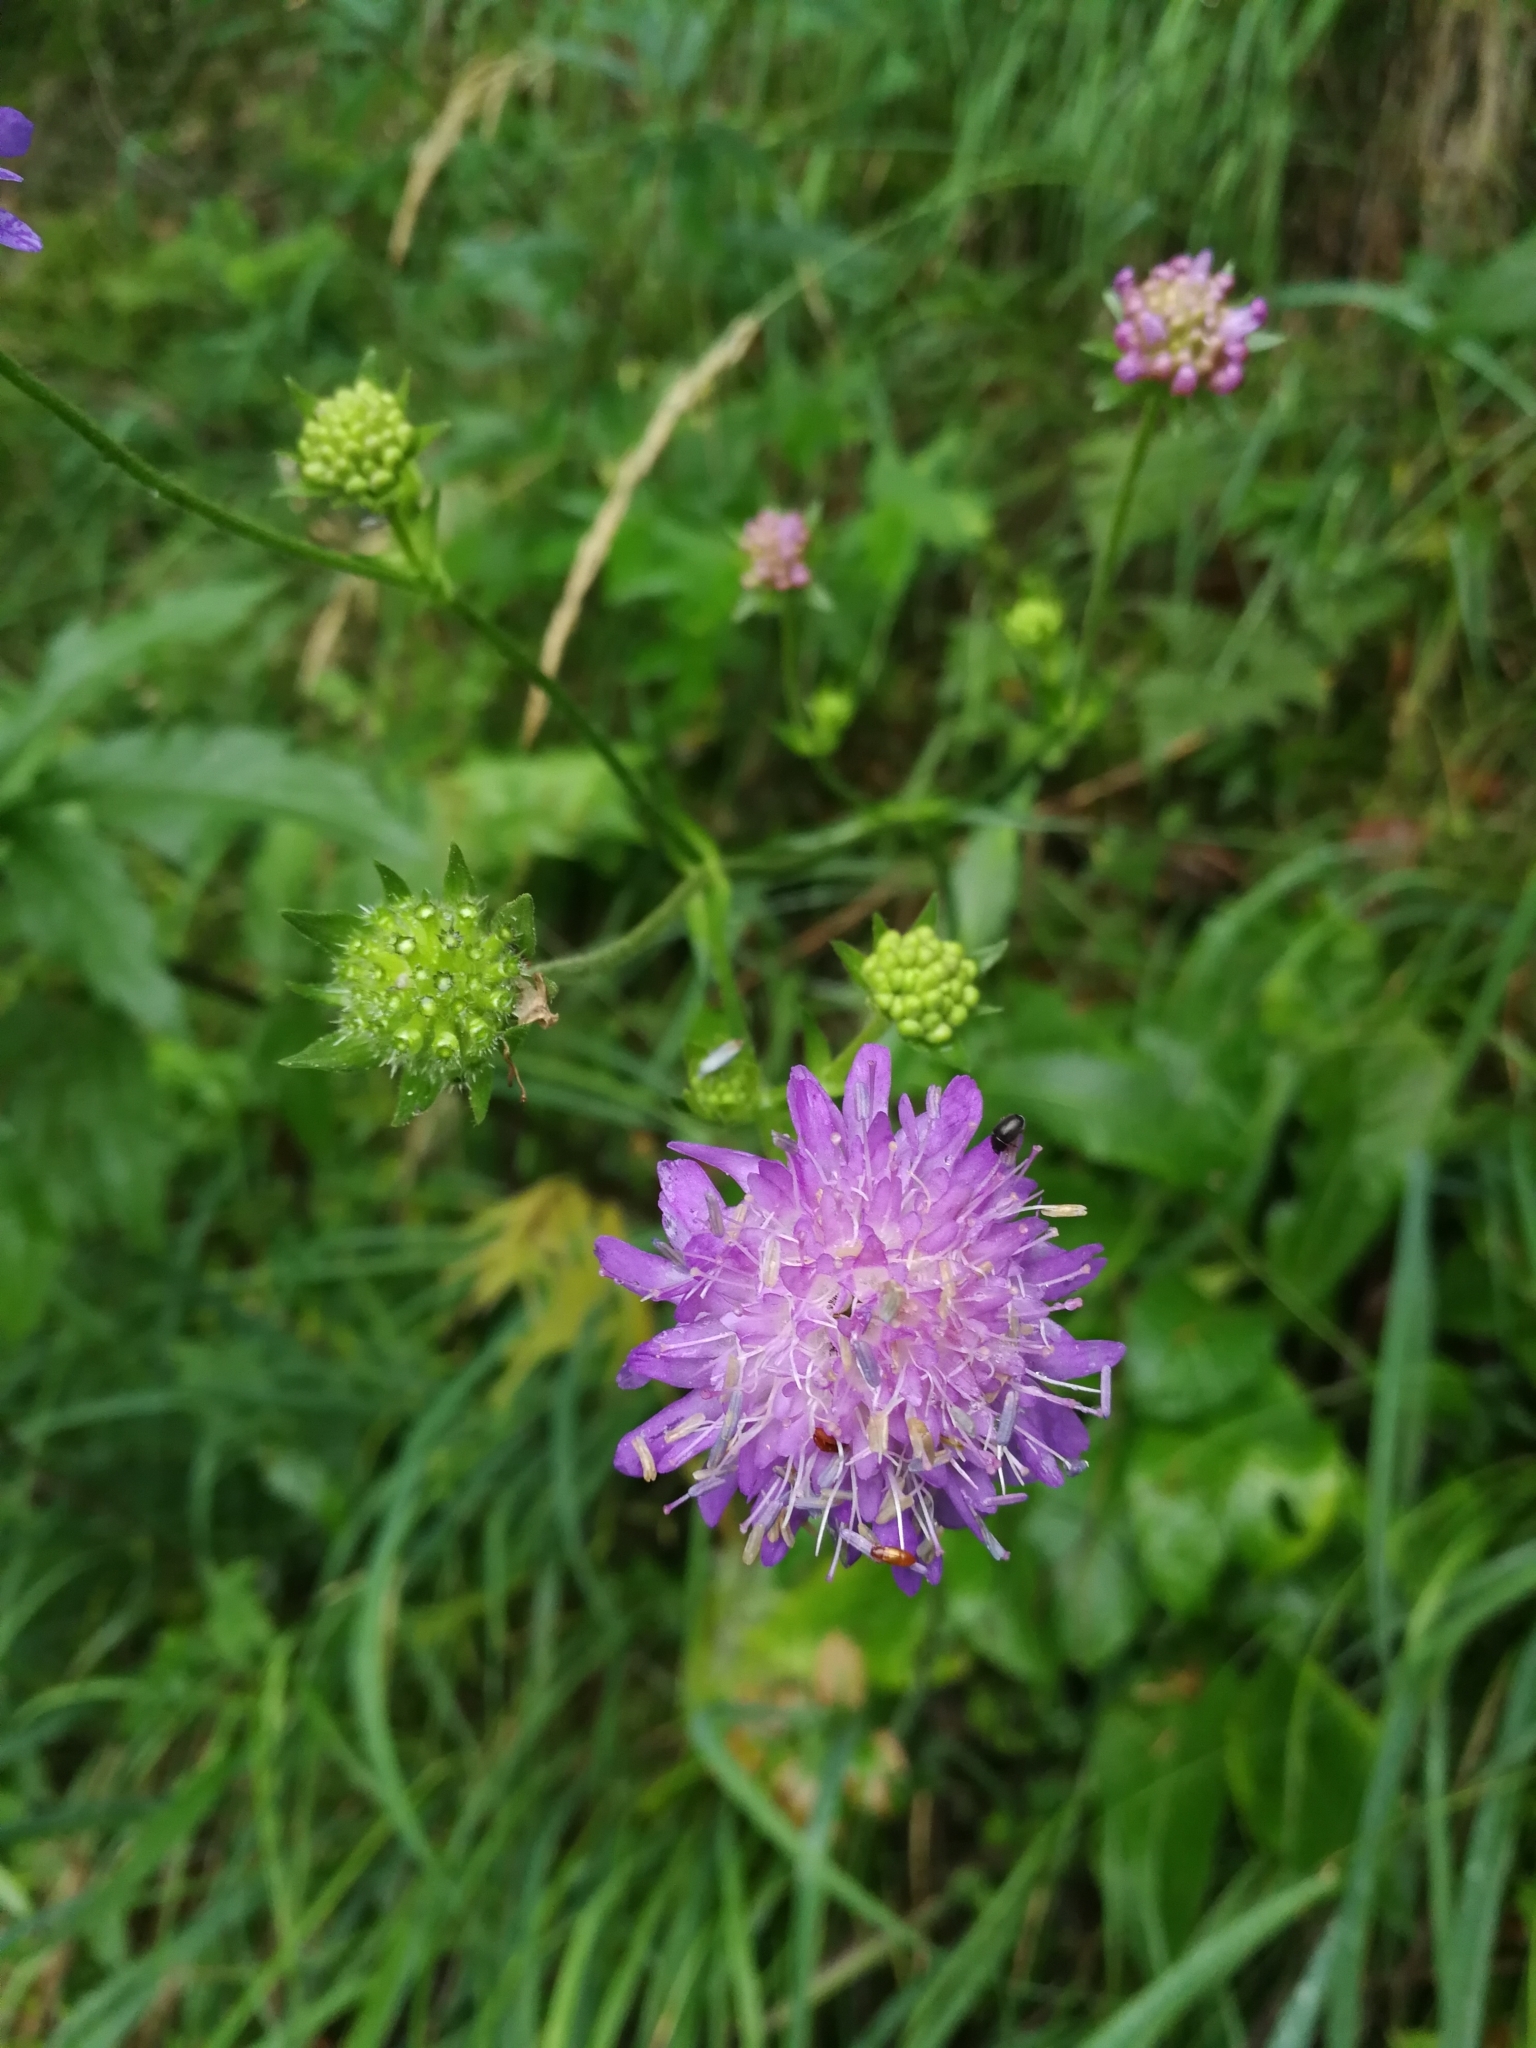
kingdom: Plantae
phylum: Tracheophyta
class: Magnoliopsida
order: Dipsacales
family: Caprifoliaceae
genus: Knautia
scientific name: Knautia arvensis
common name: Field scabiosa
